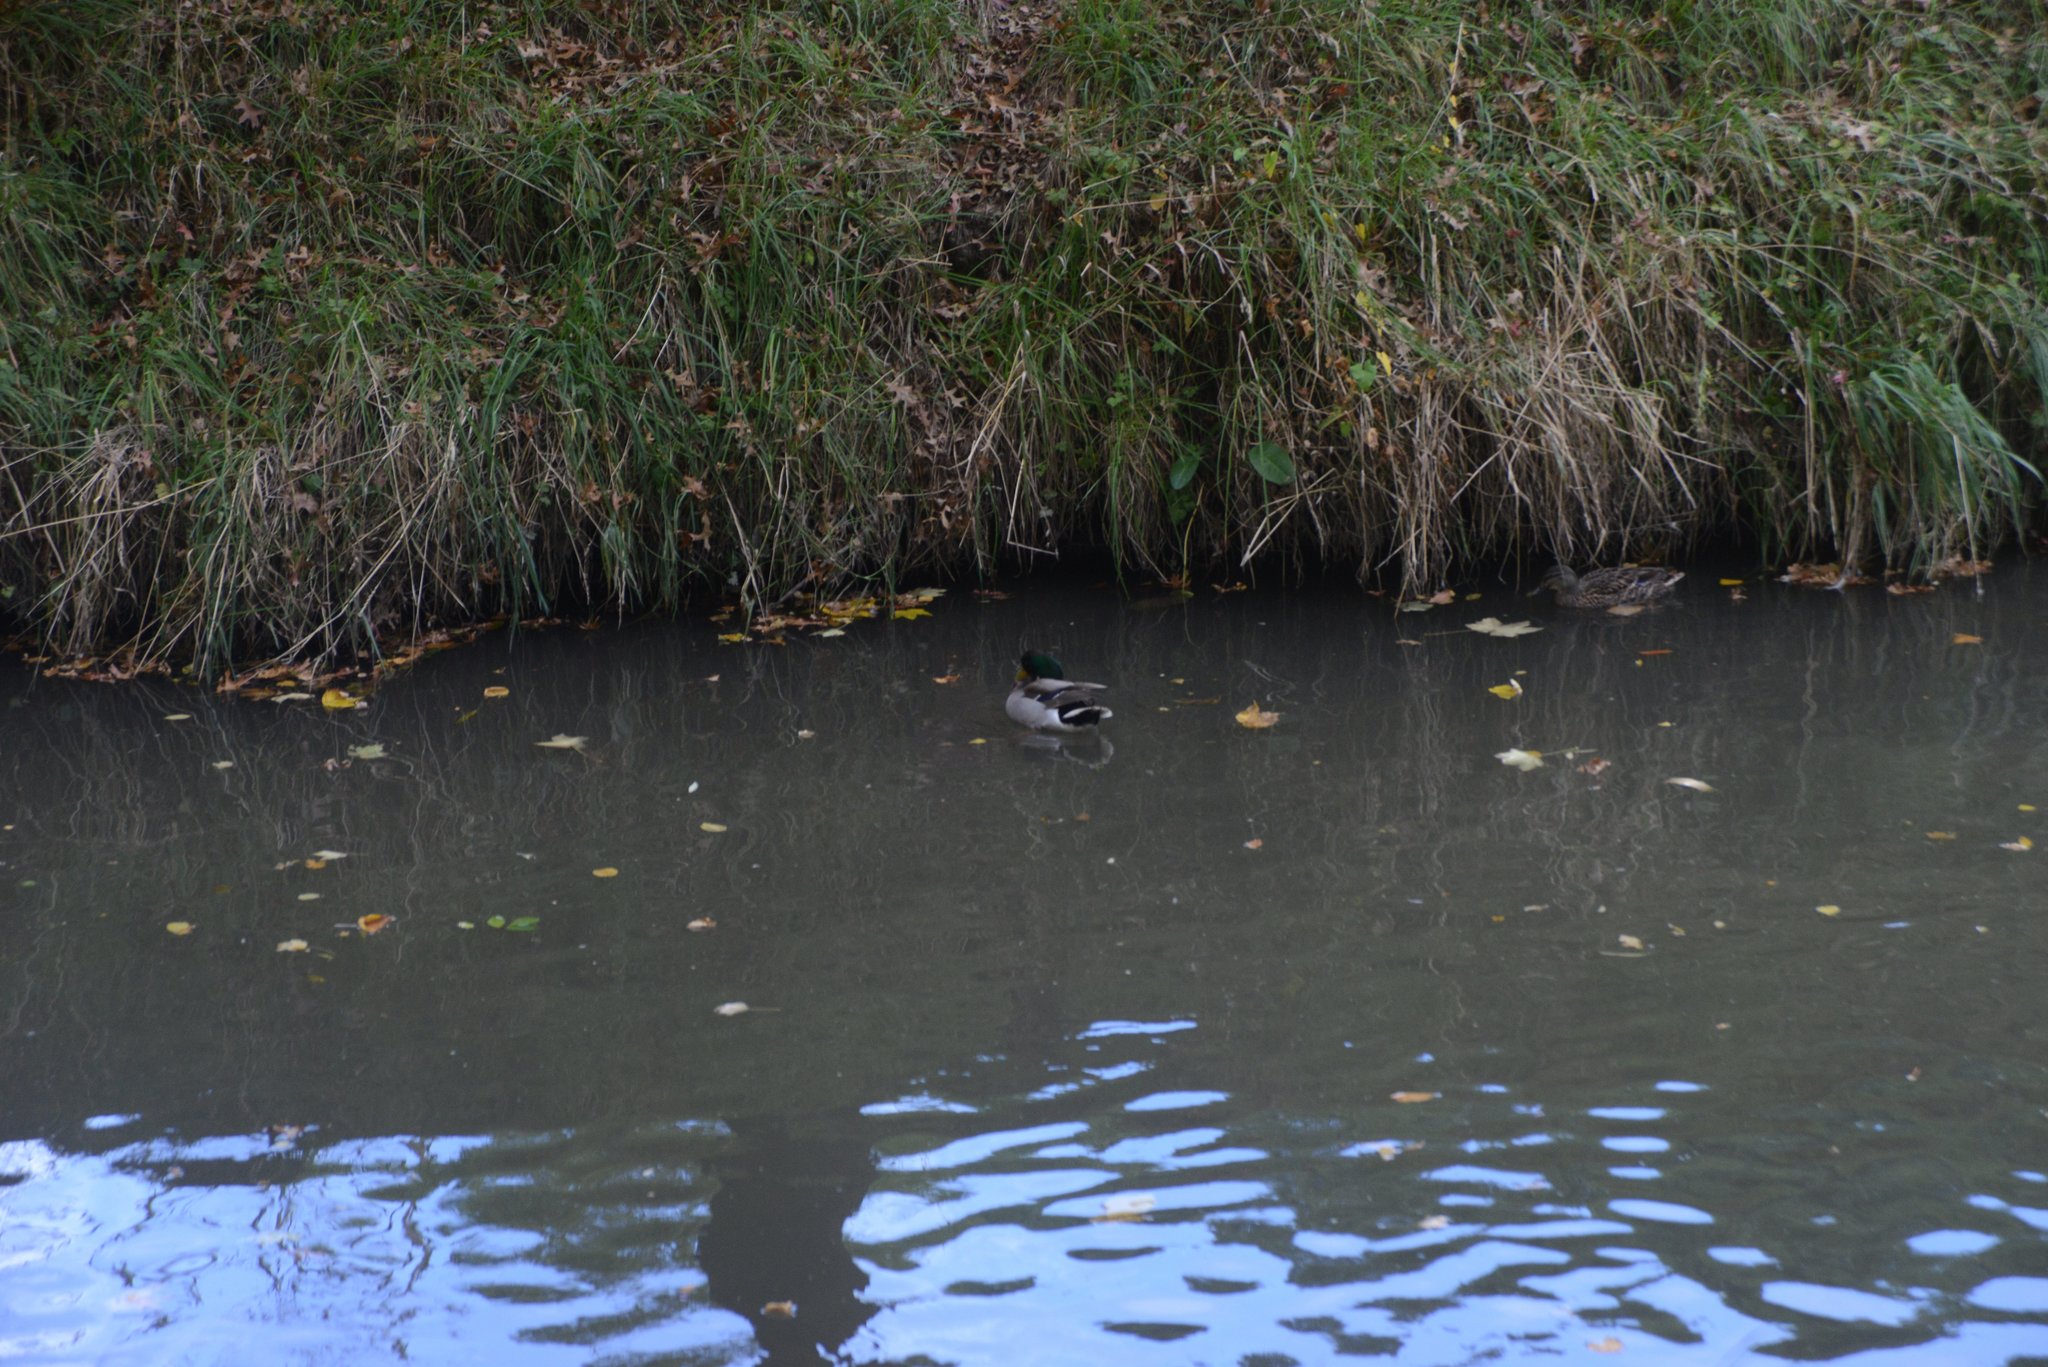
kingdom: Animalia
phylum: Chordata
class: Aves
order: Anseriformes
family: Anatidae
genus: Anas
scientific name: Anas platyrhynchos
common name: Mallard
